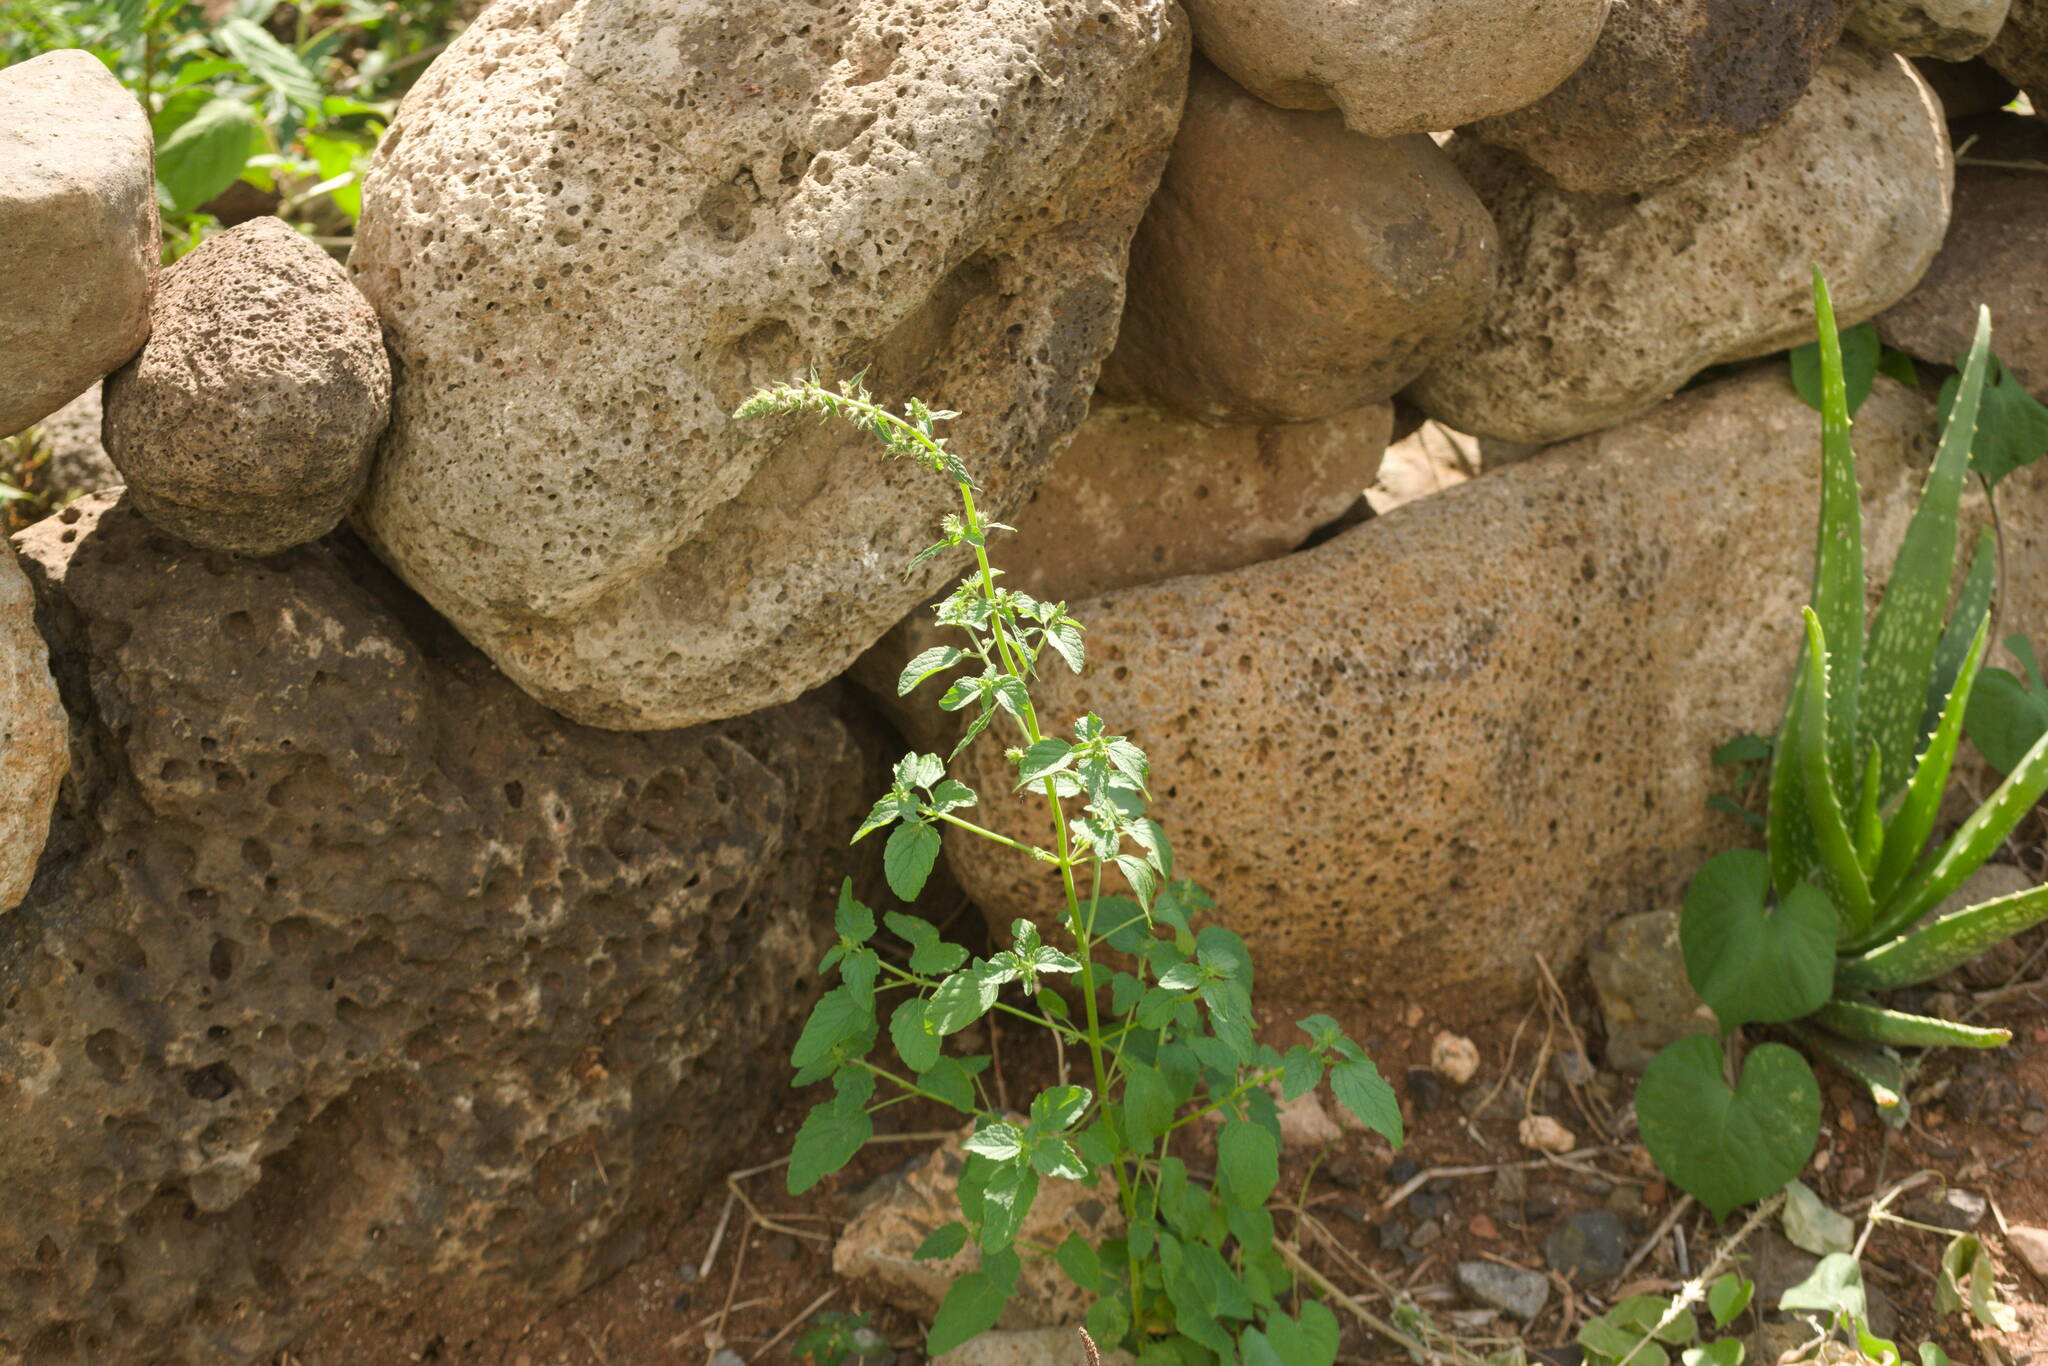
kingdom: Plantae
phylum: Tracheophyta
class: Magnoliopsida
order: Lamiales
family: Lamiaceae
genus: Mesosphaerum
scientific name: Mesosphaerum pectinatum
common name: Comb hyptis
